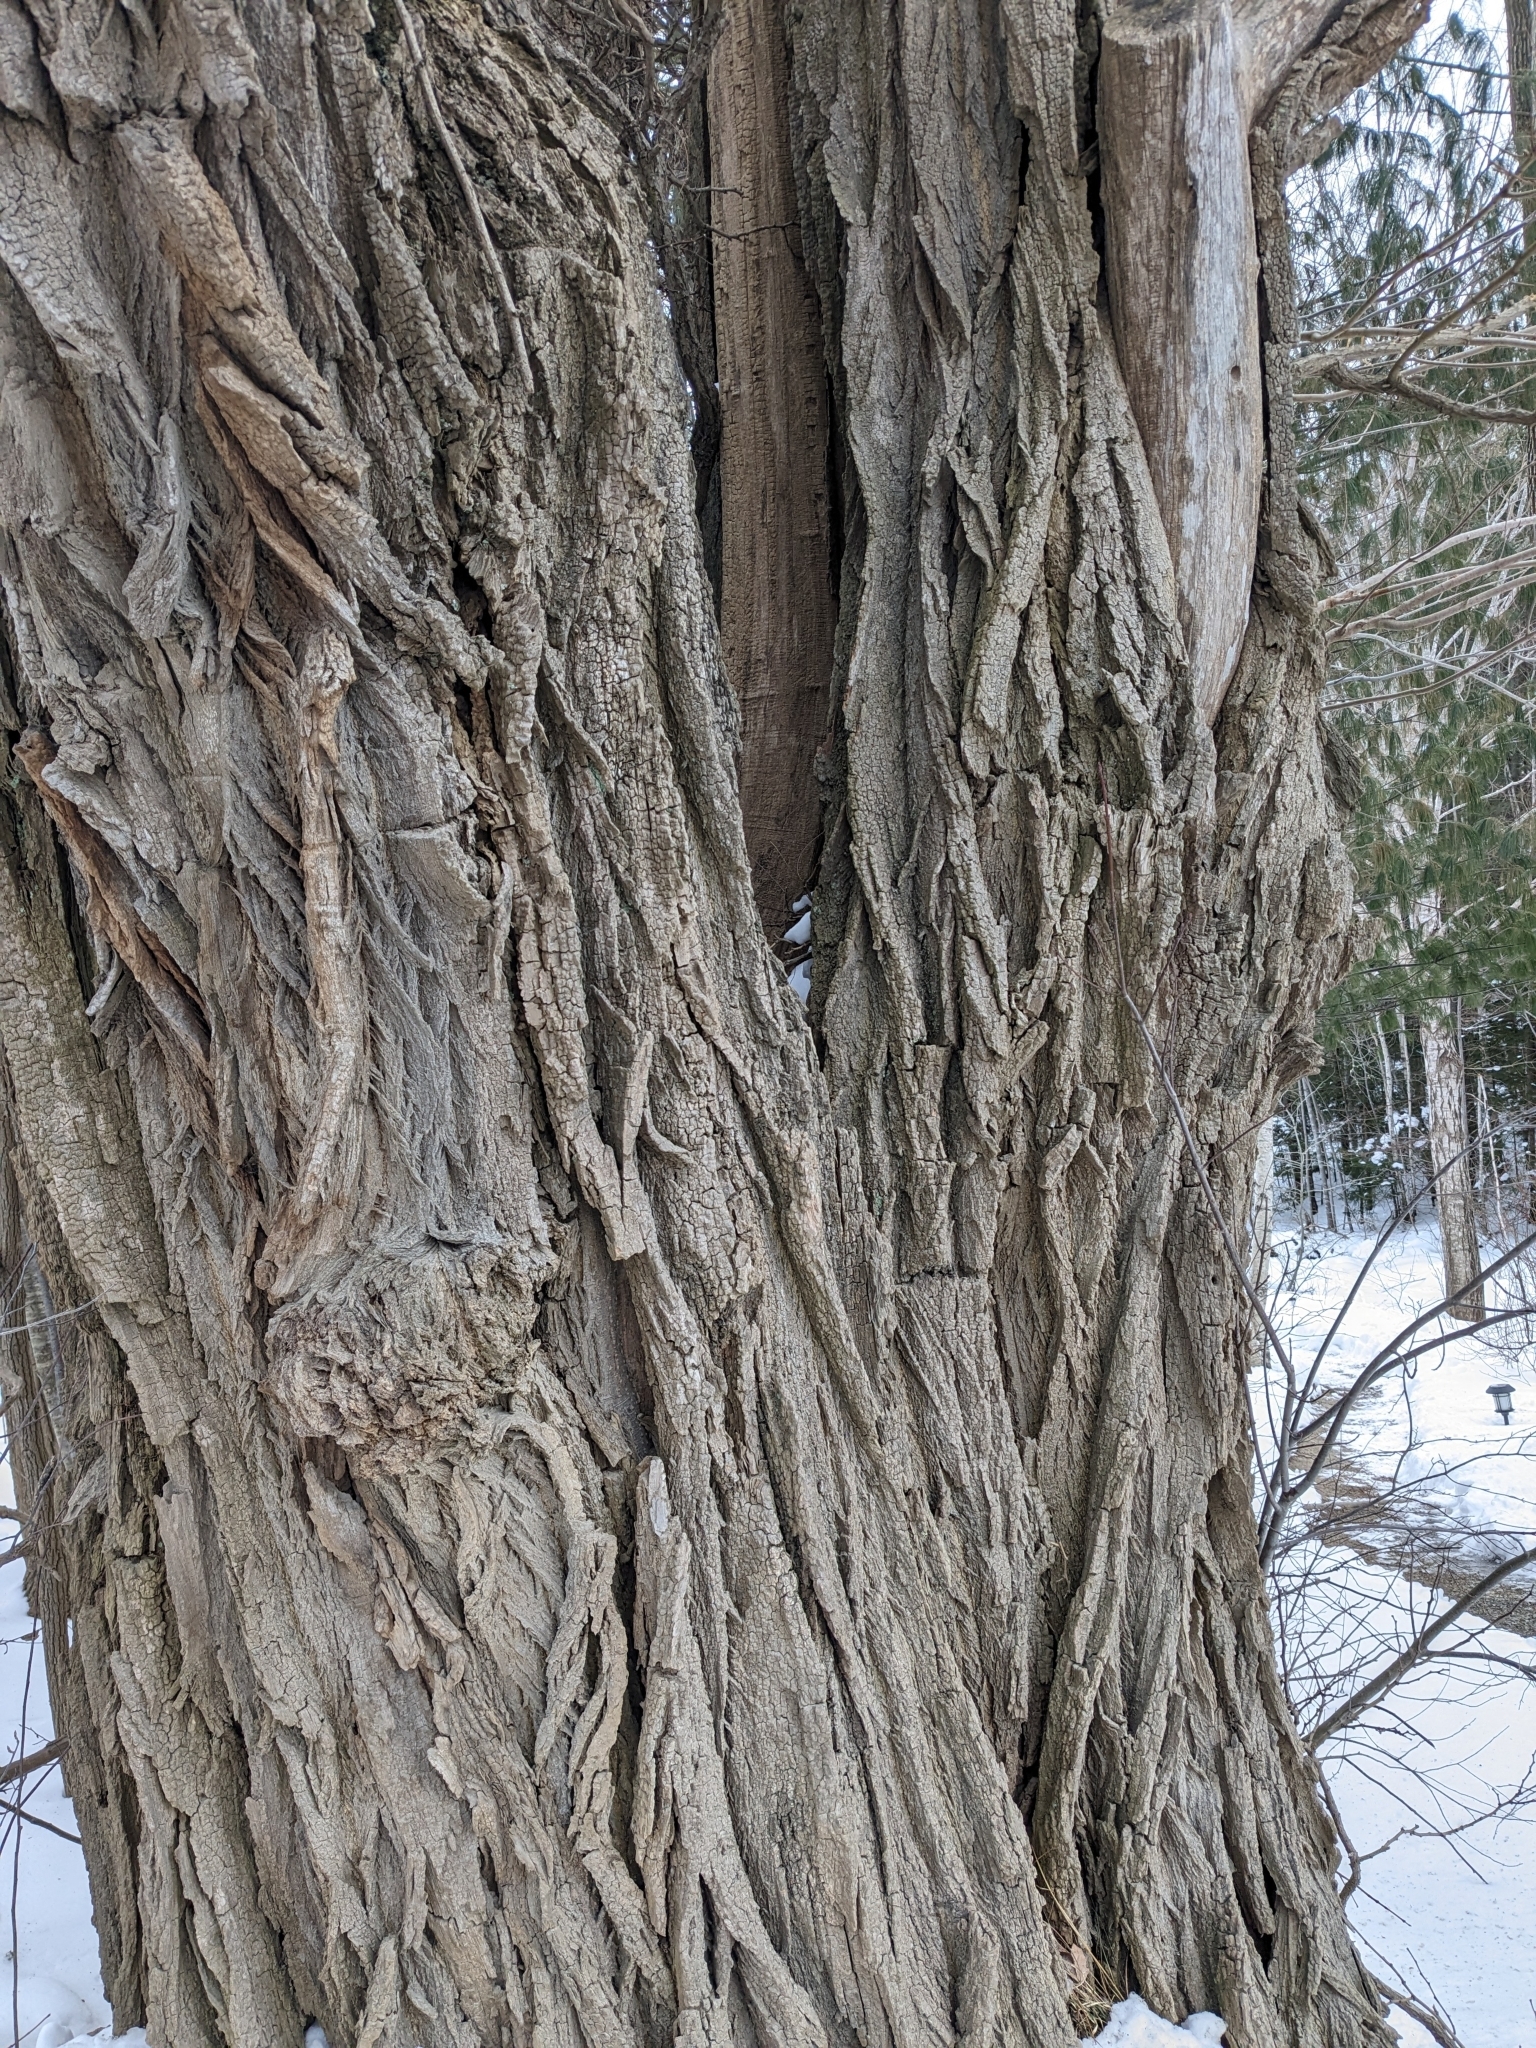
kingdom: Plantae
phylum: Tracheophyta
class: Magnoliopsida
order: Fabales
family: Fabaceae
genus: Robinia
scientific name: Robinia pseudoacacia
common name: Black locust
